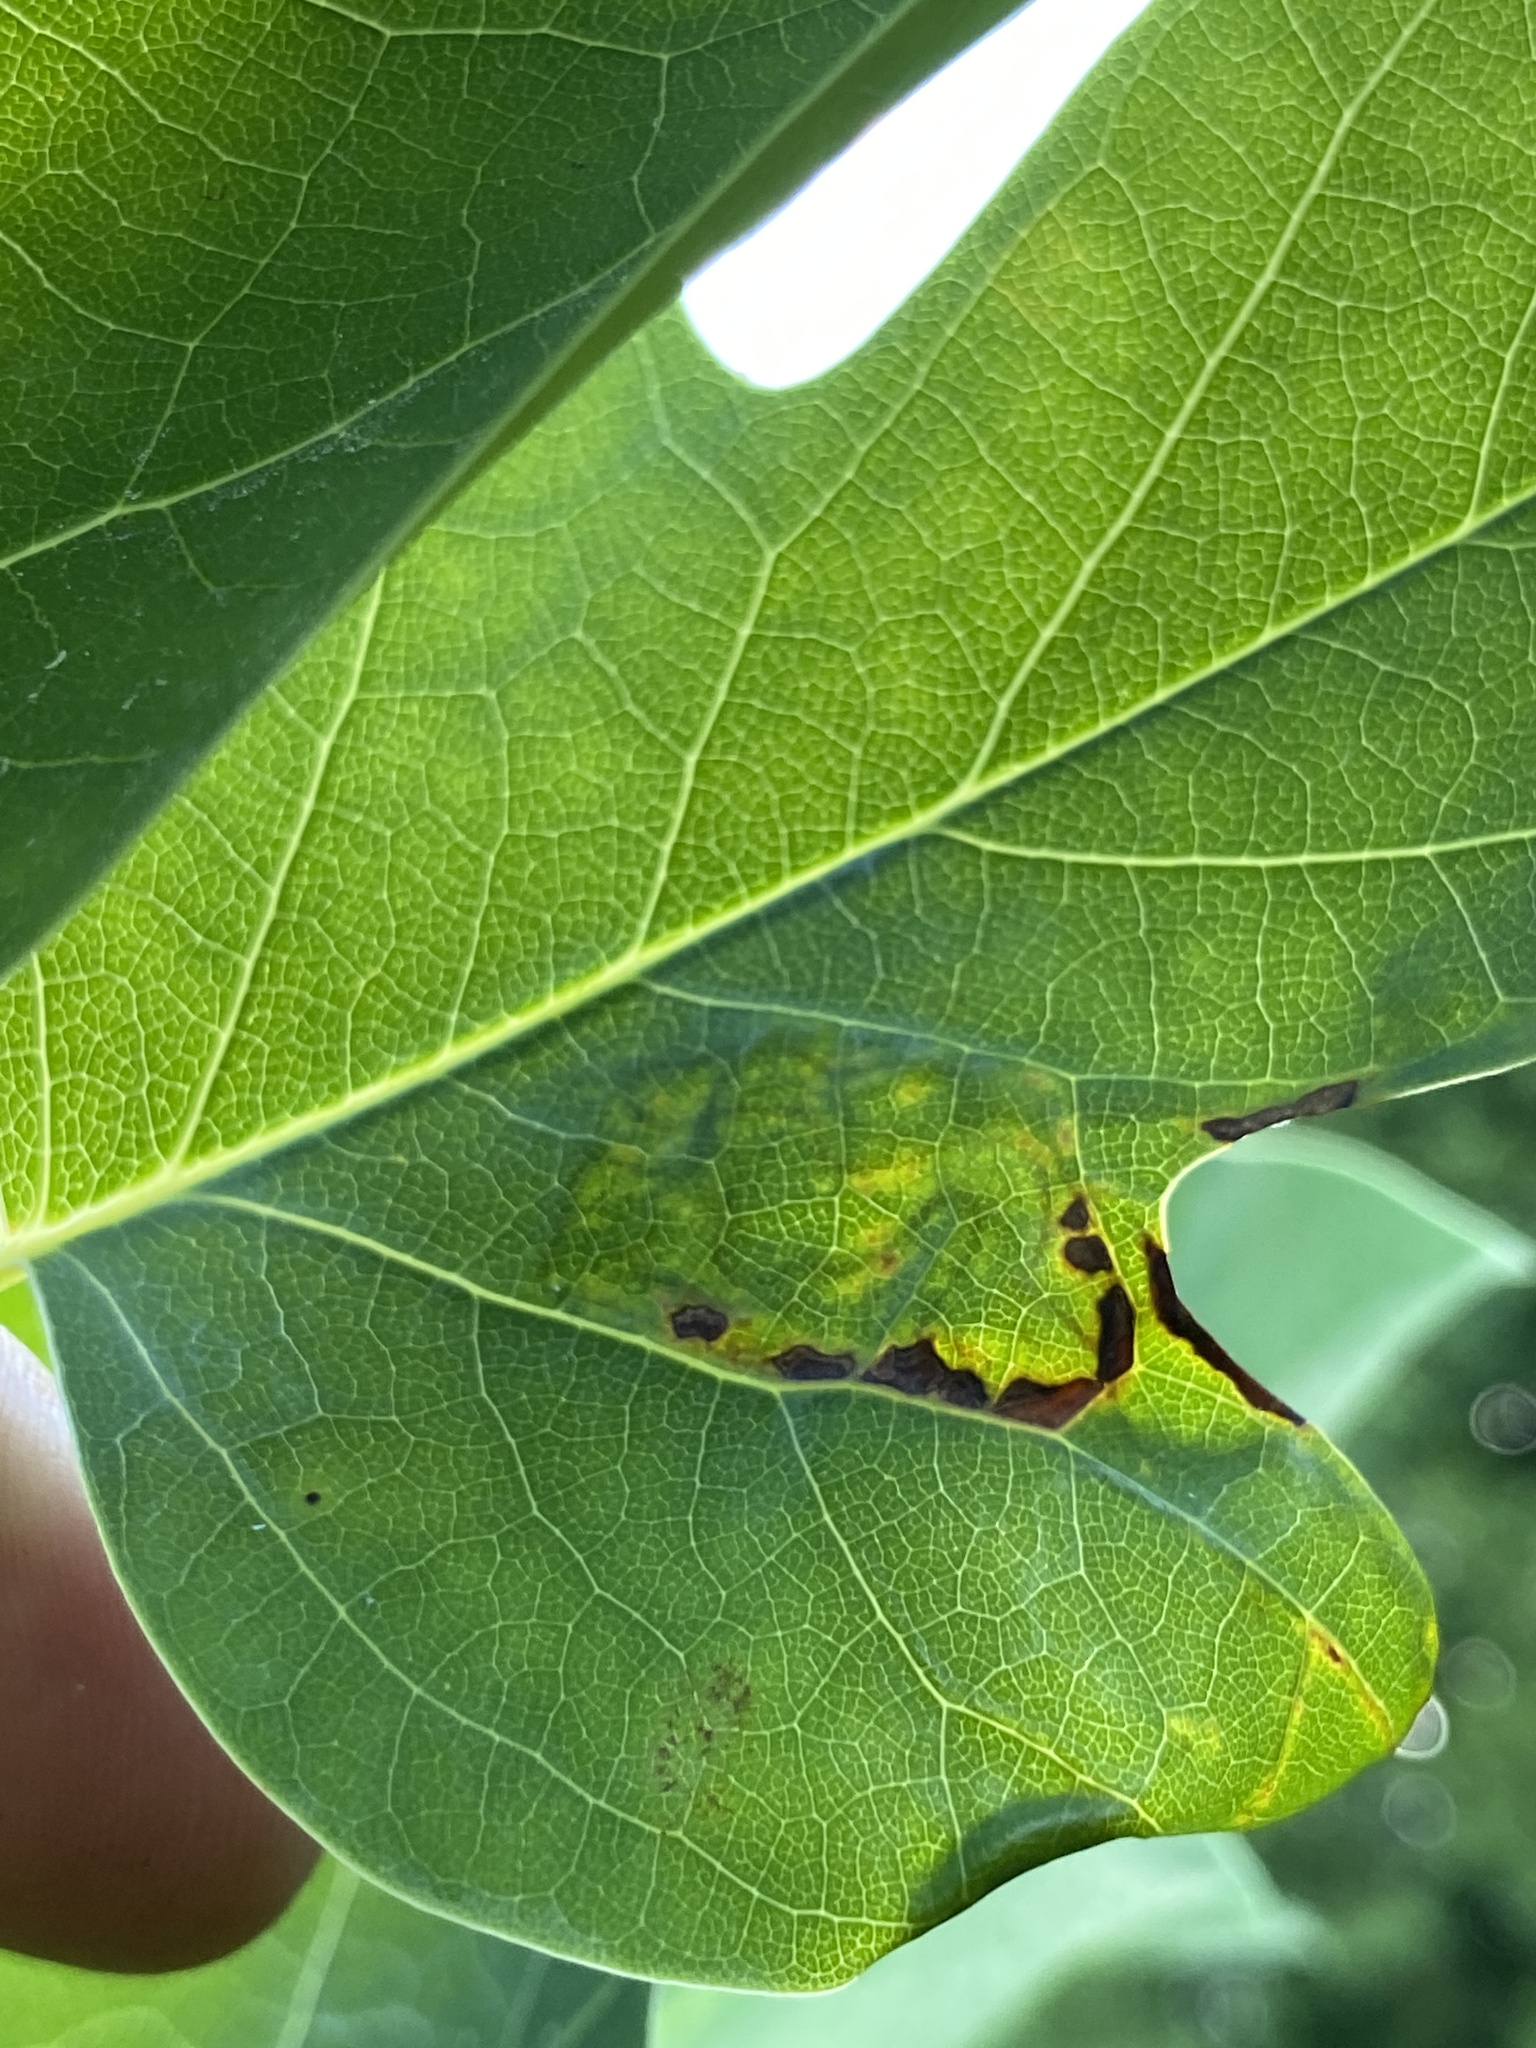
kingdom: Animalia
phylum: Arthropoda
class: Insecta
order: Lepidoptera
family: Gracillariidae
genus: Phyllocnistis
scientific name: Phyllocnistis liriodendronella
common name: Tulip tree leaf miner
